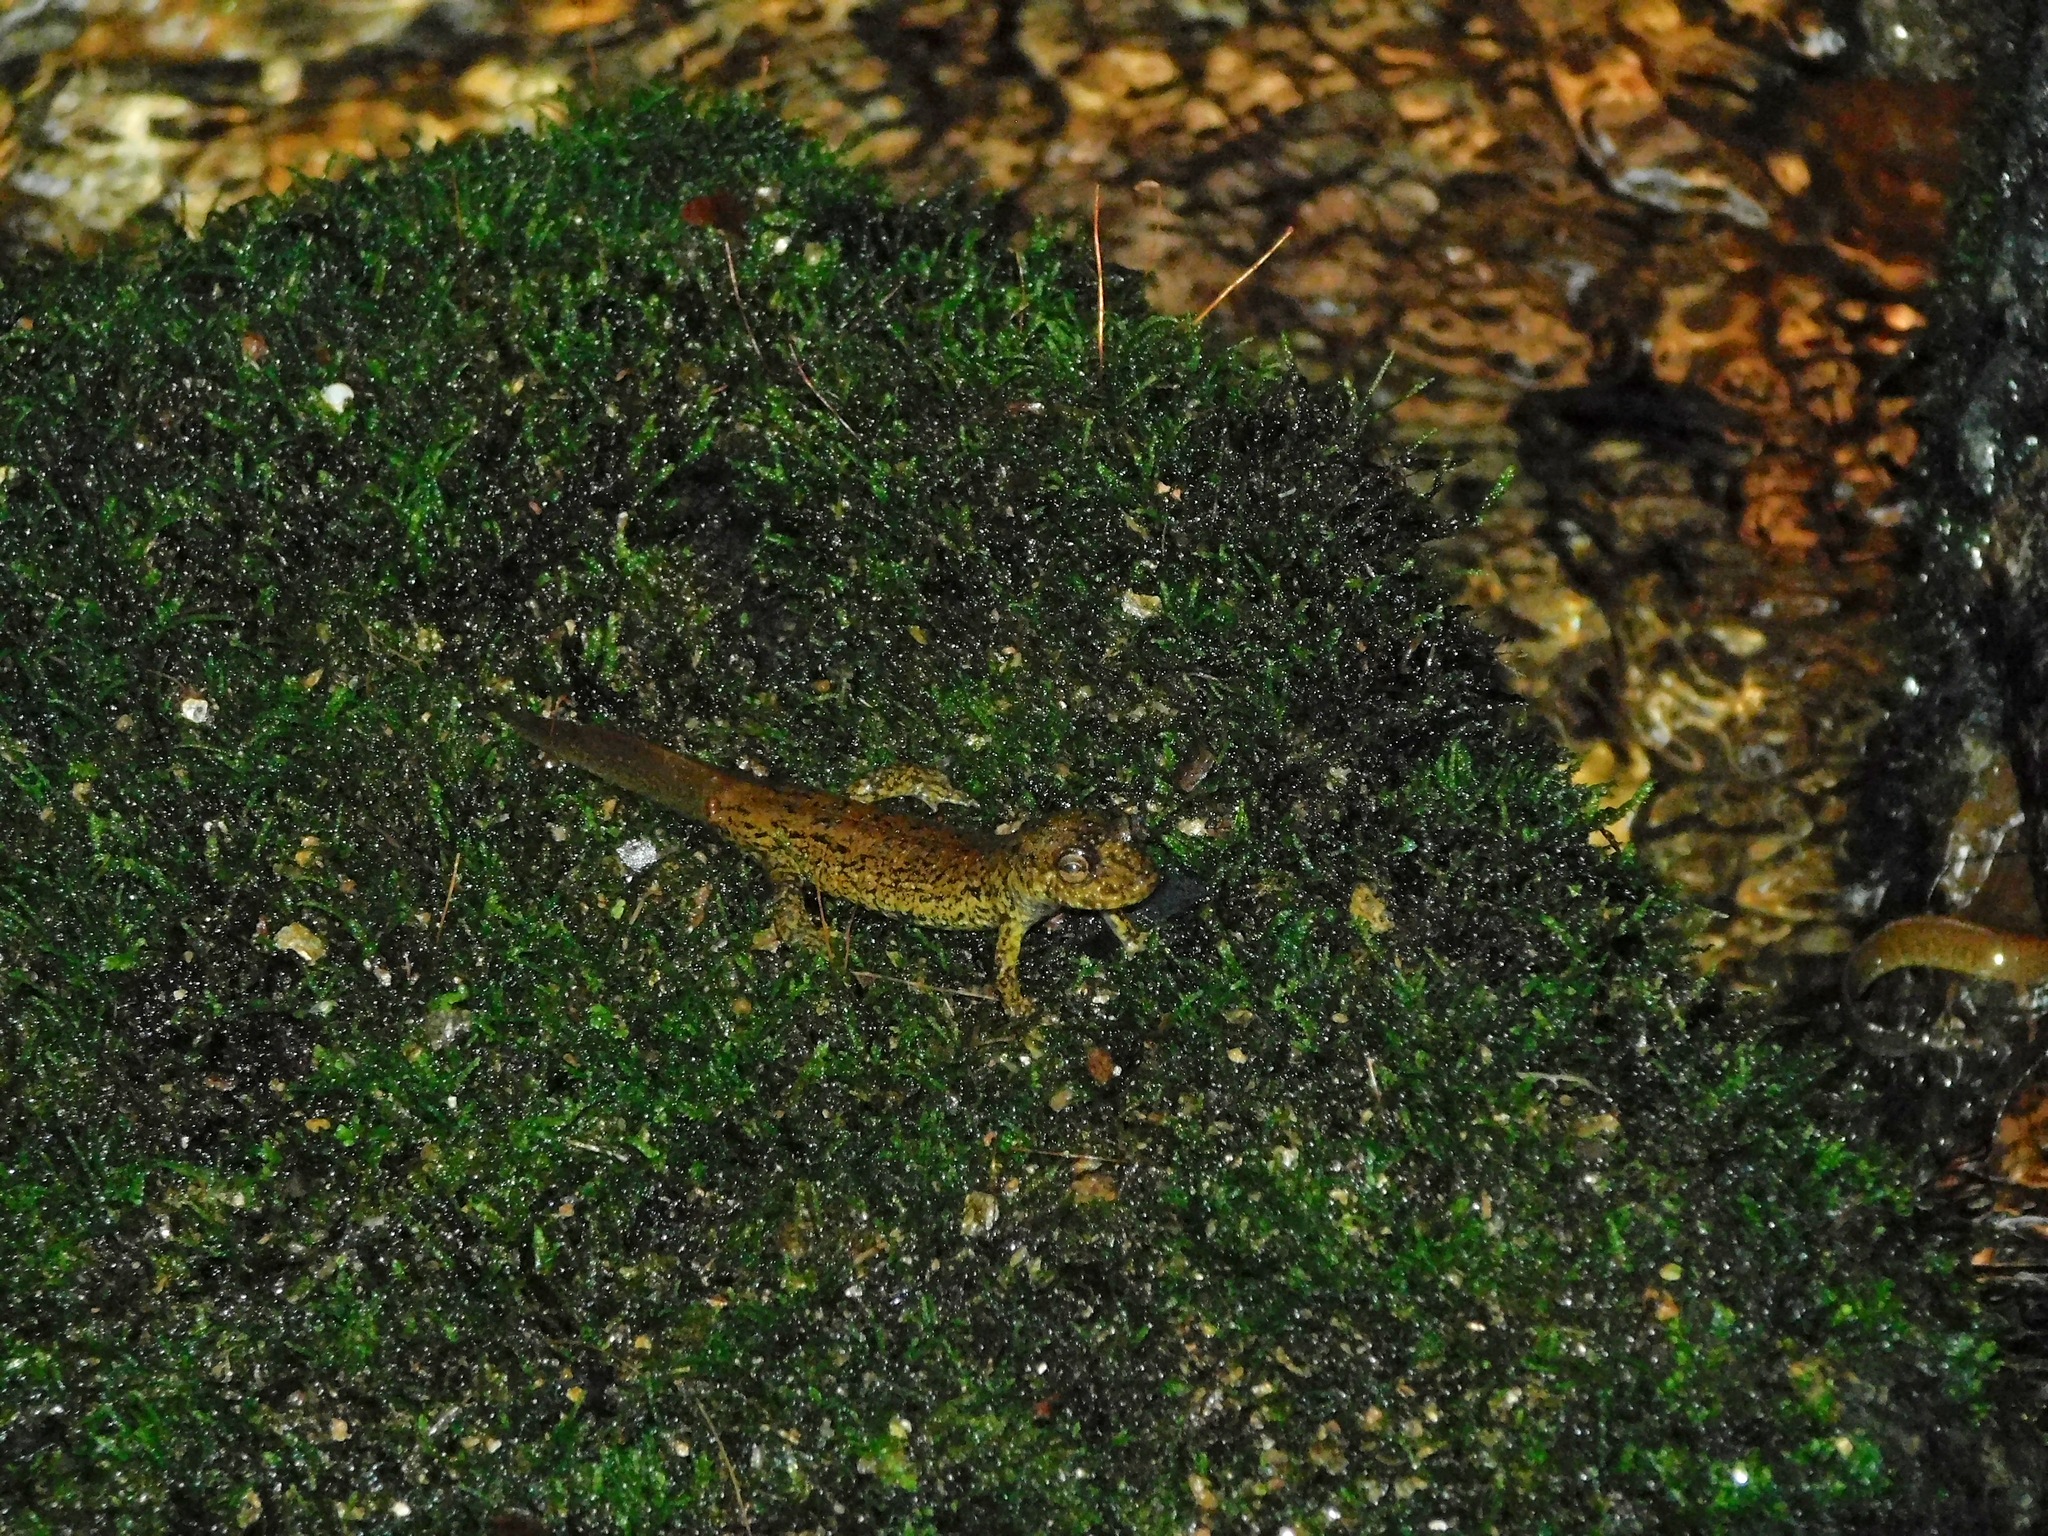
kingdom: Animalia
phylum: Chordata
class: Amphibia
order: Caudata
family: Plethodontidae
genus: Desmognathus
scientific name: Desmognathus
